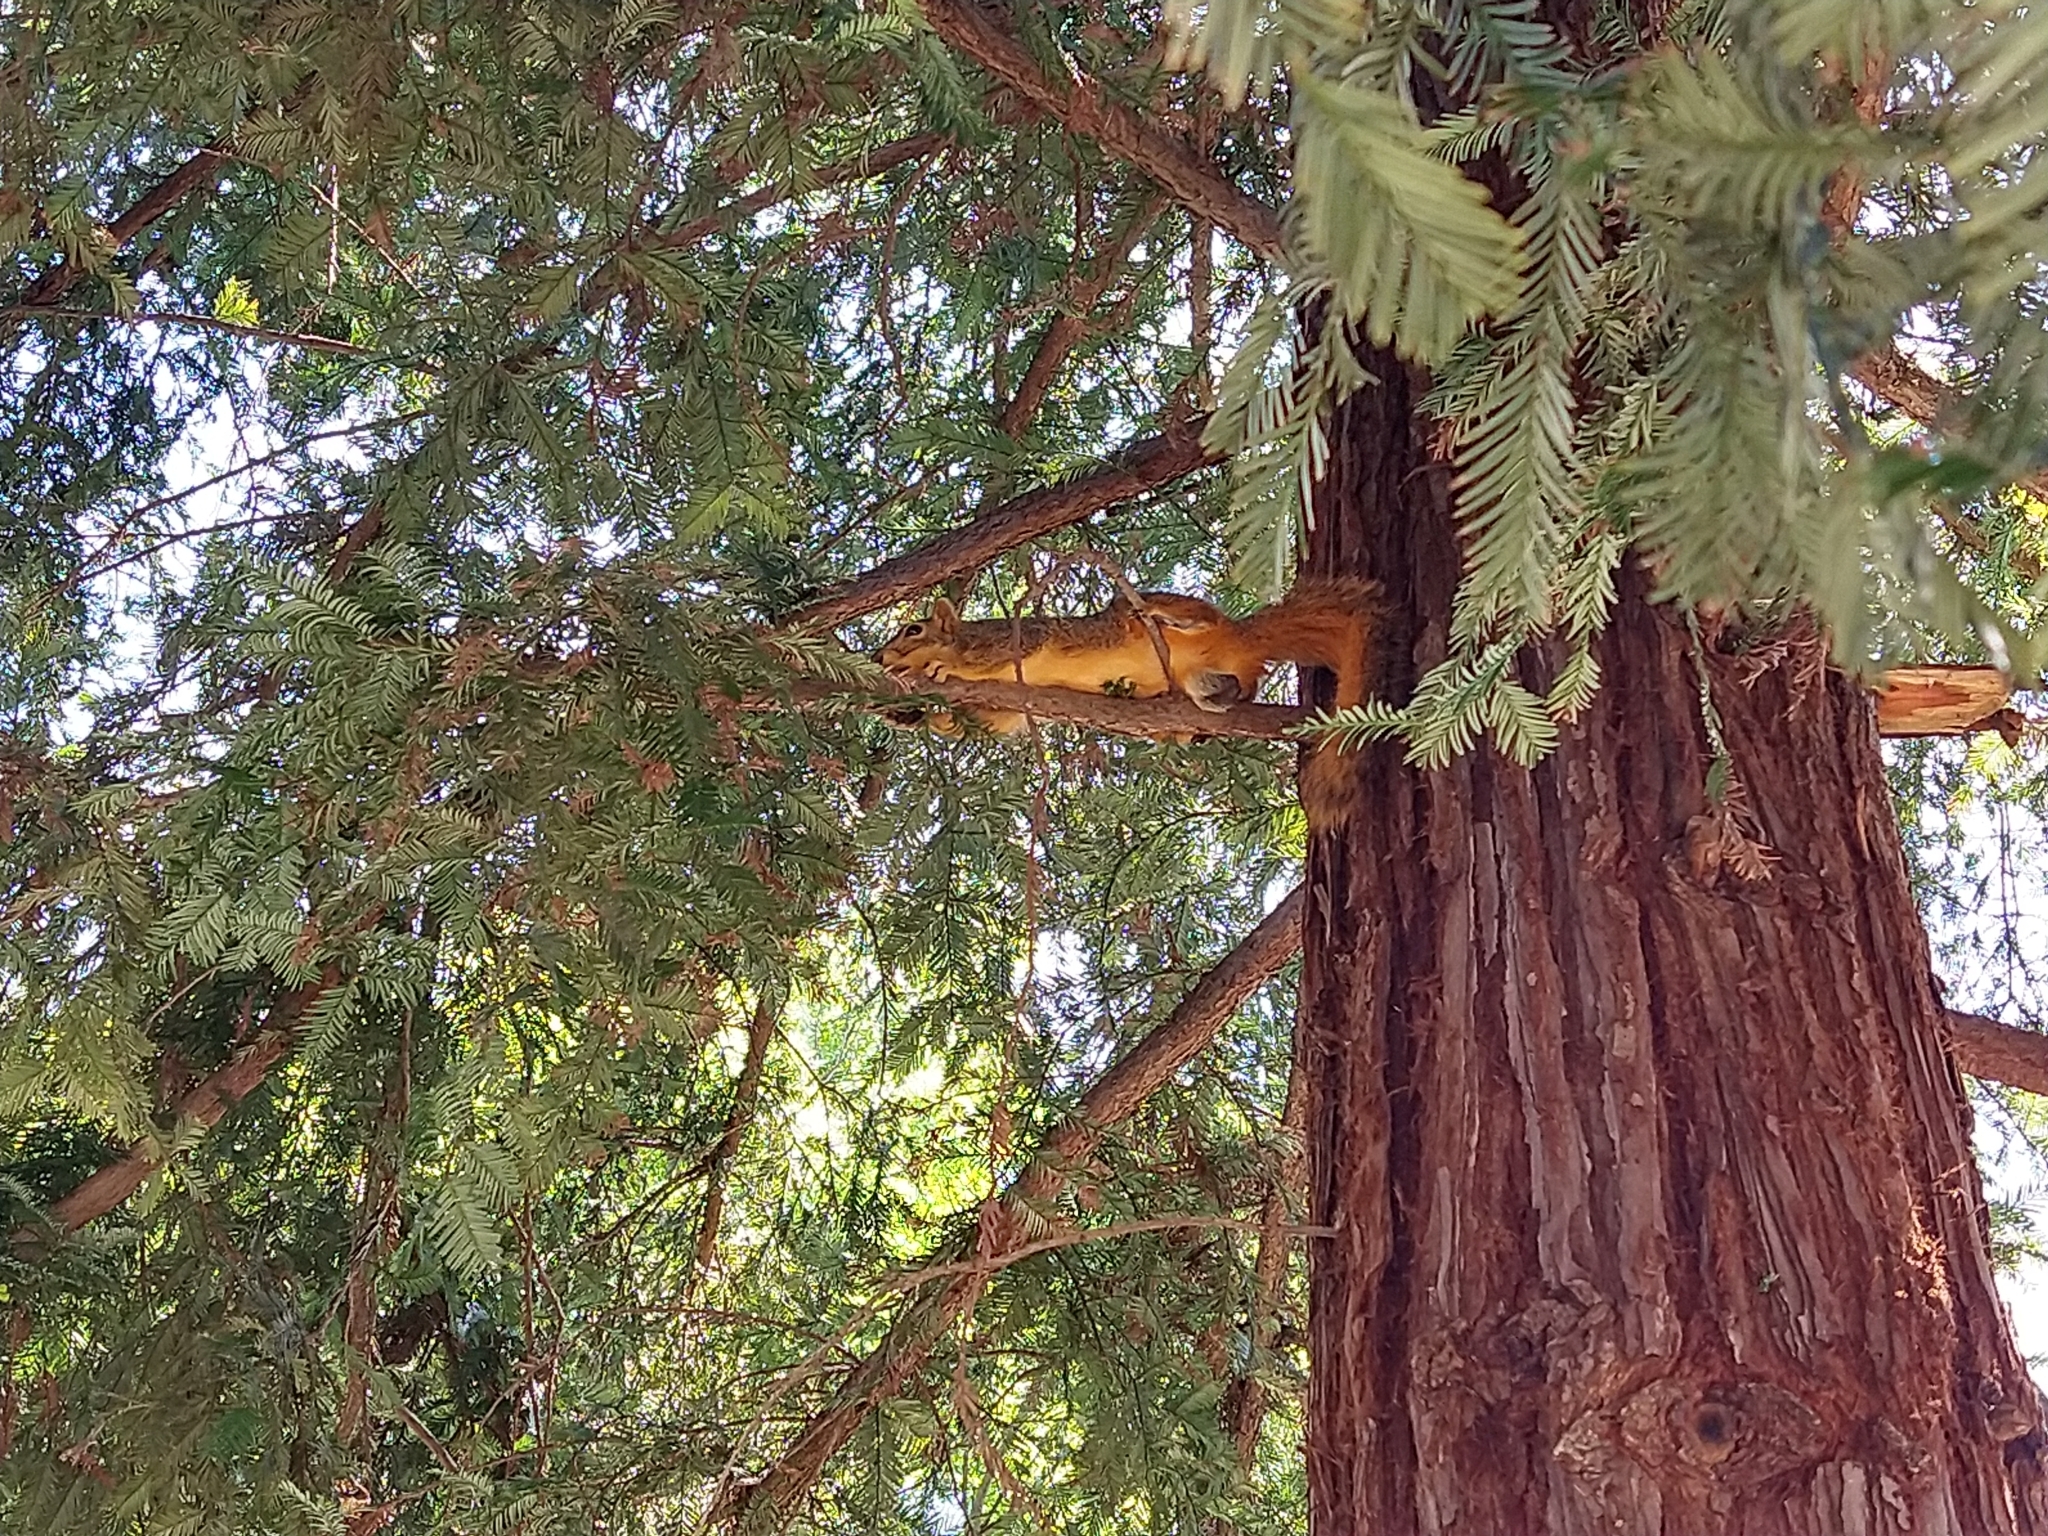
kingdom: Animalia
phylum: Chordata
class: Mammalia
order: Rodentia
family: Sciuridae
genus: Sciurus
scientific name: Sciurus niger
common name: Fox squirrel
